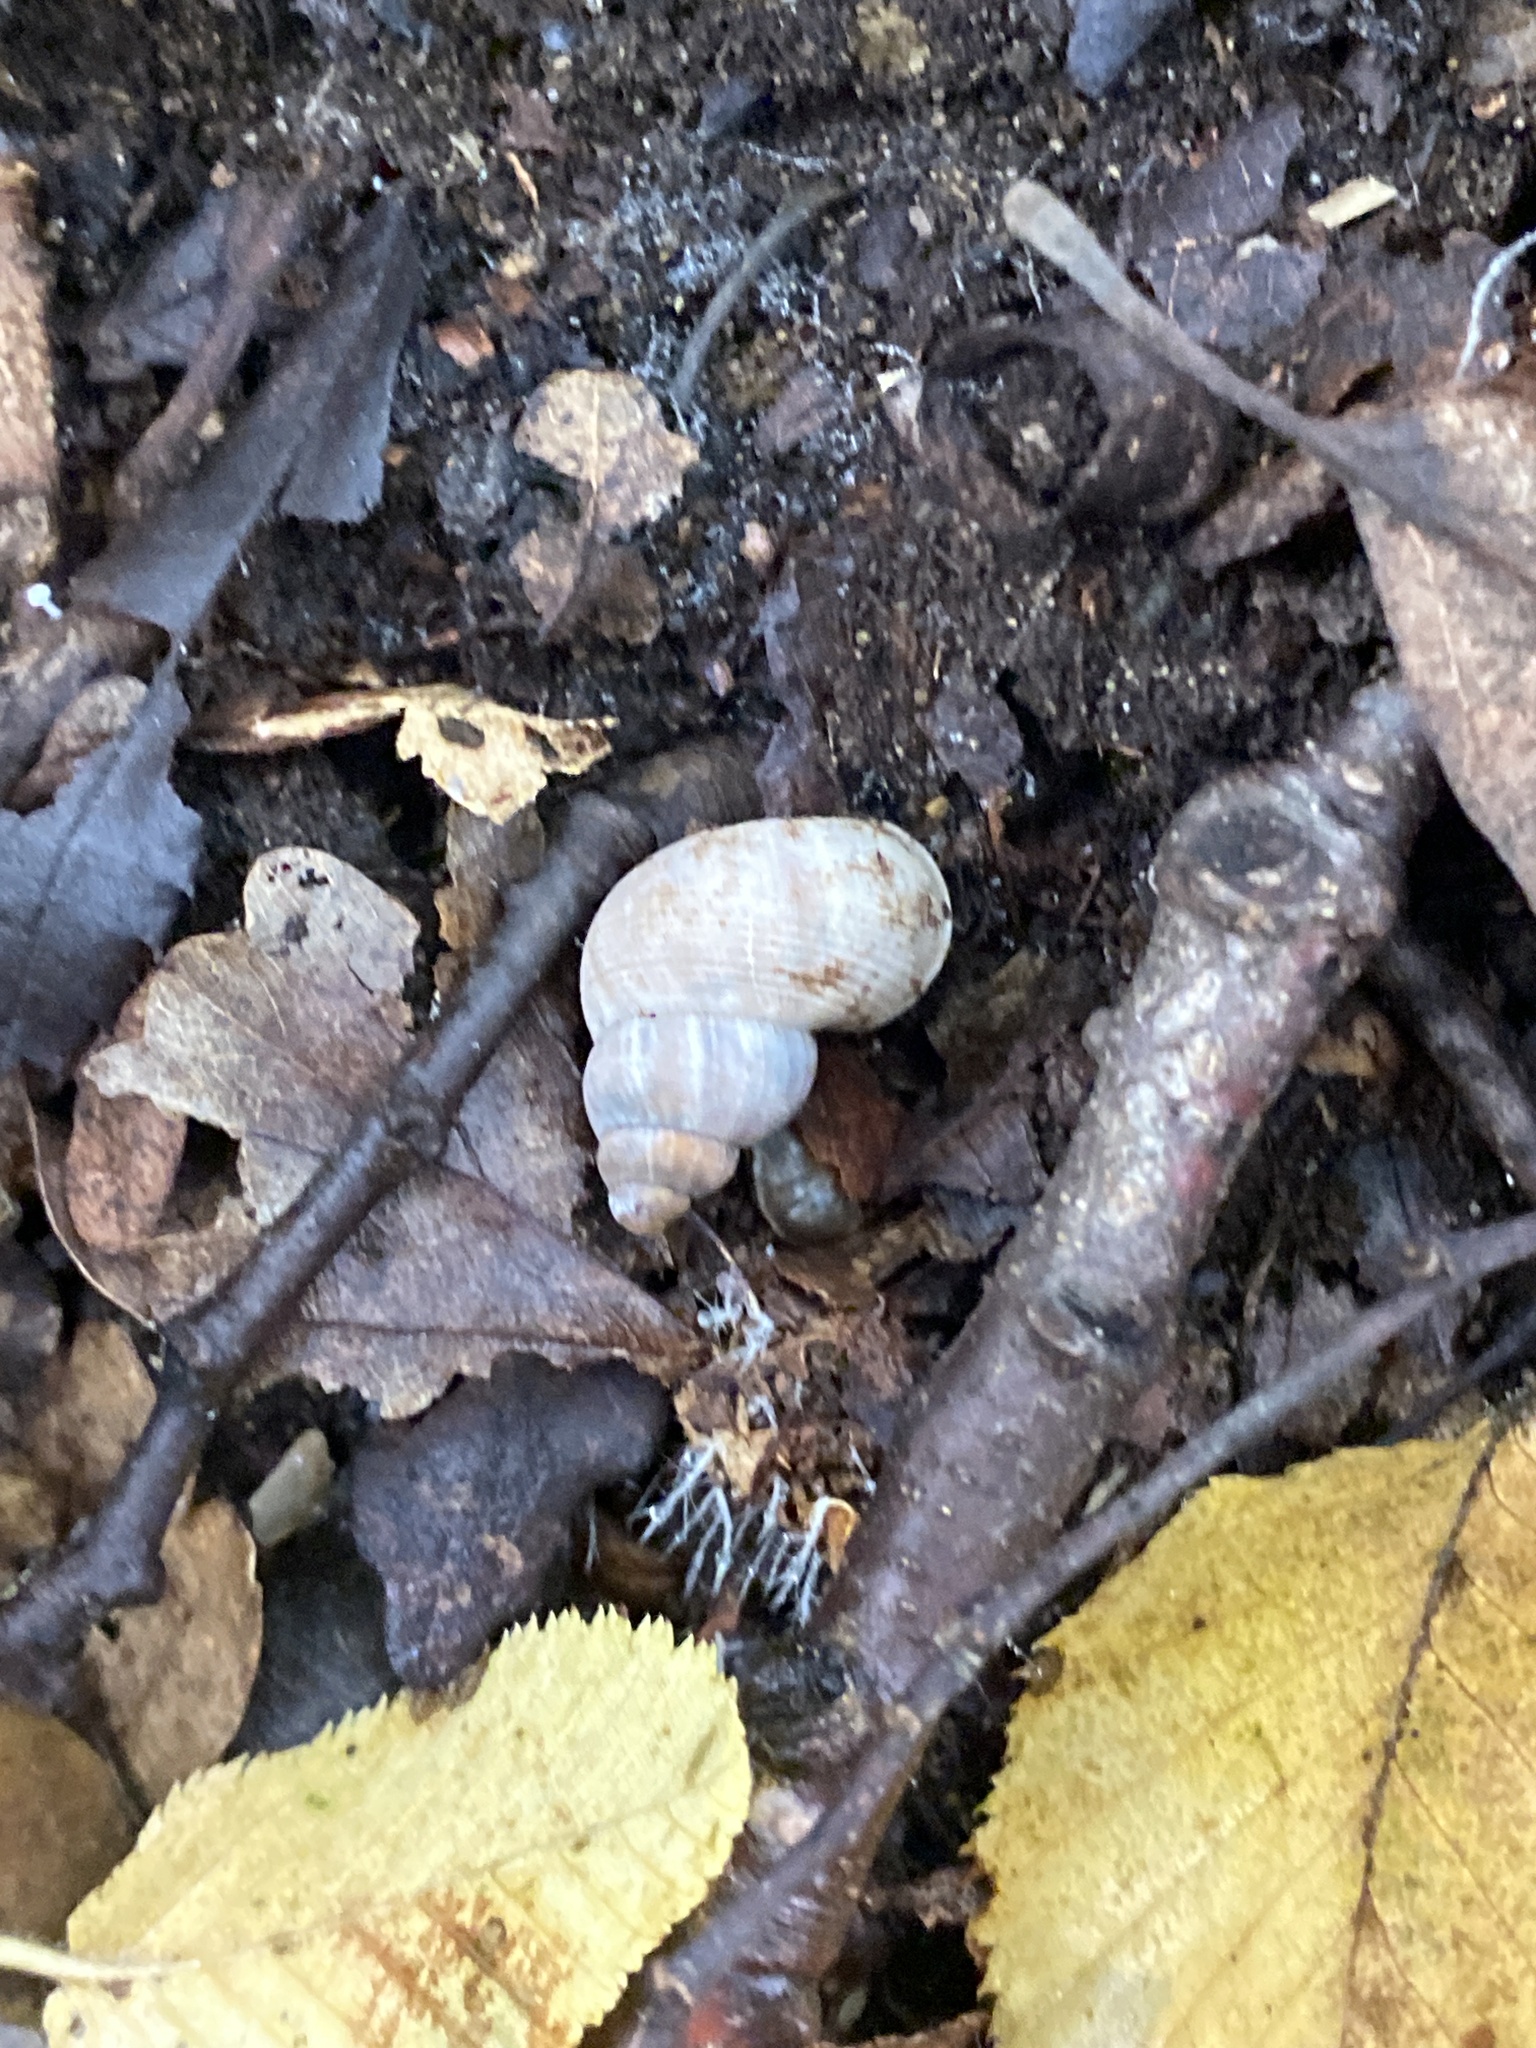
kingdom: Animalia
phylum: Mollusca
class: Gastropoda
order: Littorinimorpha
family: Pomatiidae
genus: Pomatias
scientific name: Pomatias elegans
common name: Red-mouthed snail
